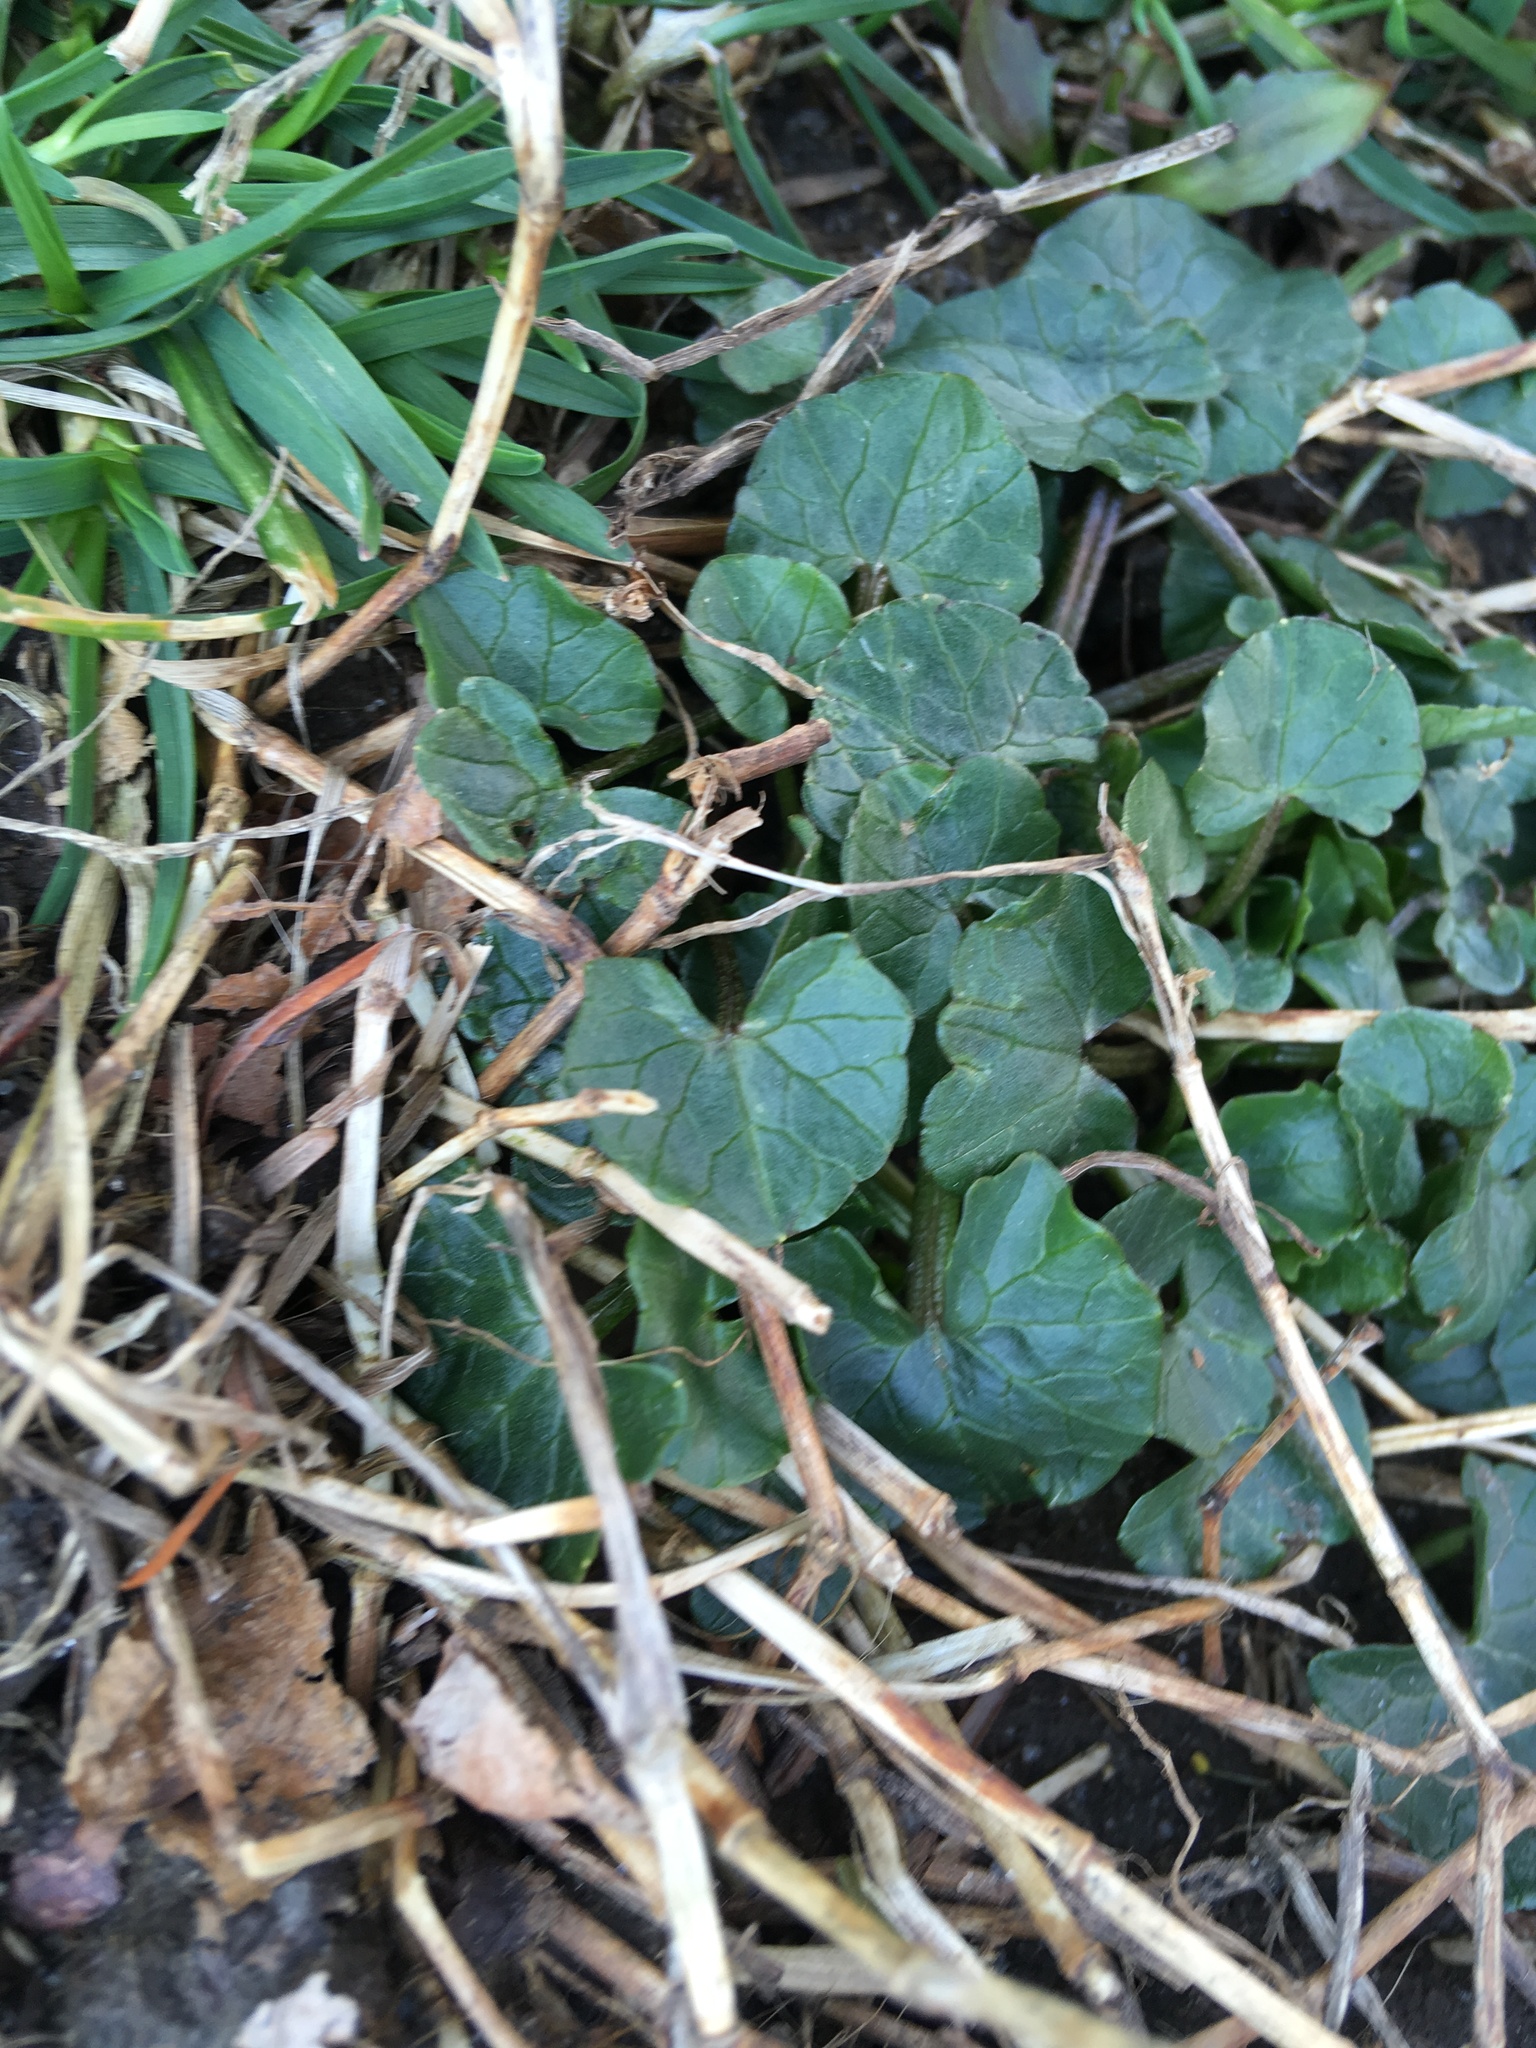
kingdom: Plantae
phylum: Tracheophyta
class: Magnoliopsida
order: Ranunculales
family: Ranunculaceae
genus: Ficaria
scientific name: Ficaria verna
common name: Lesser celandine
